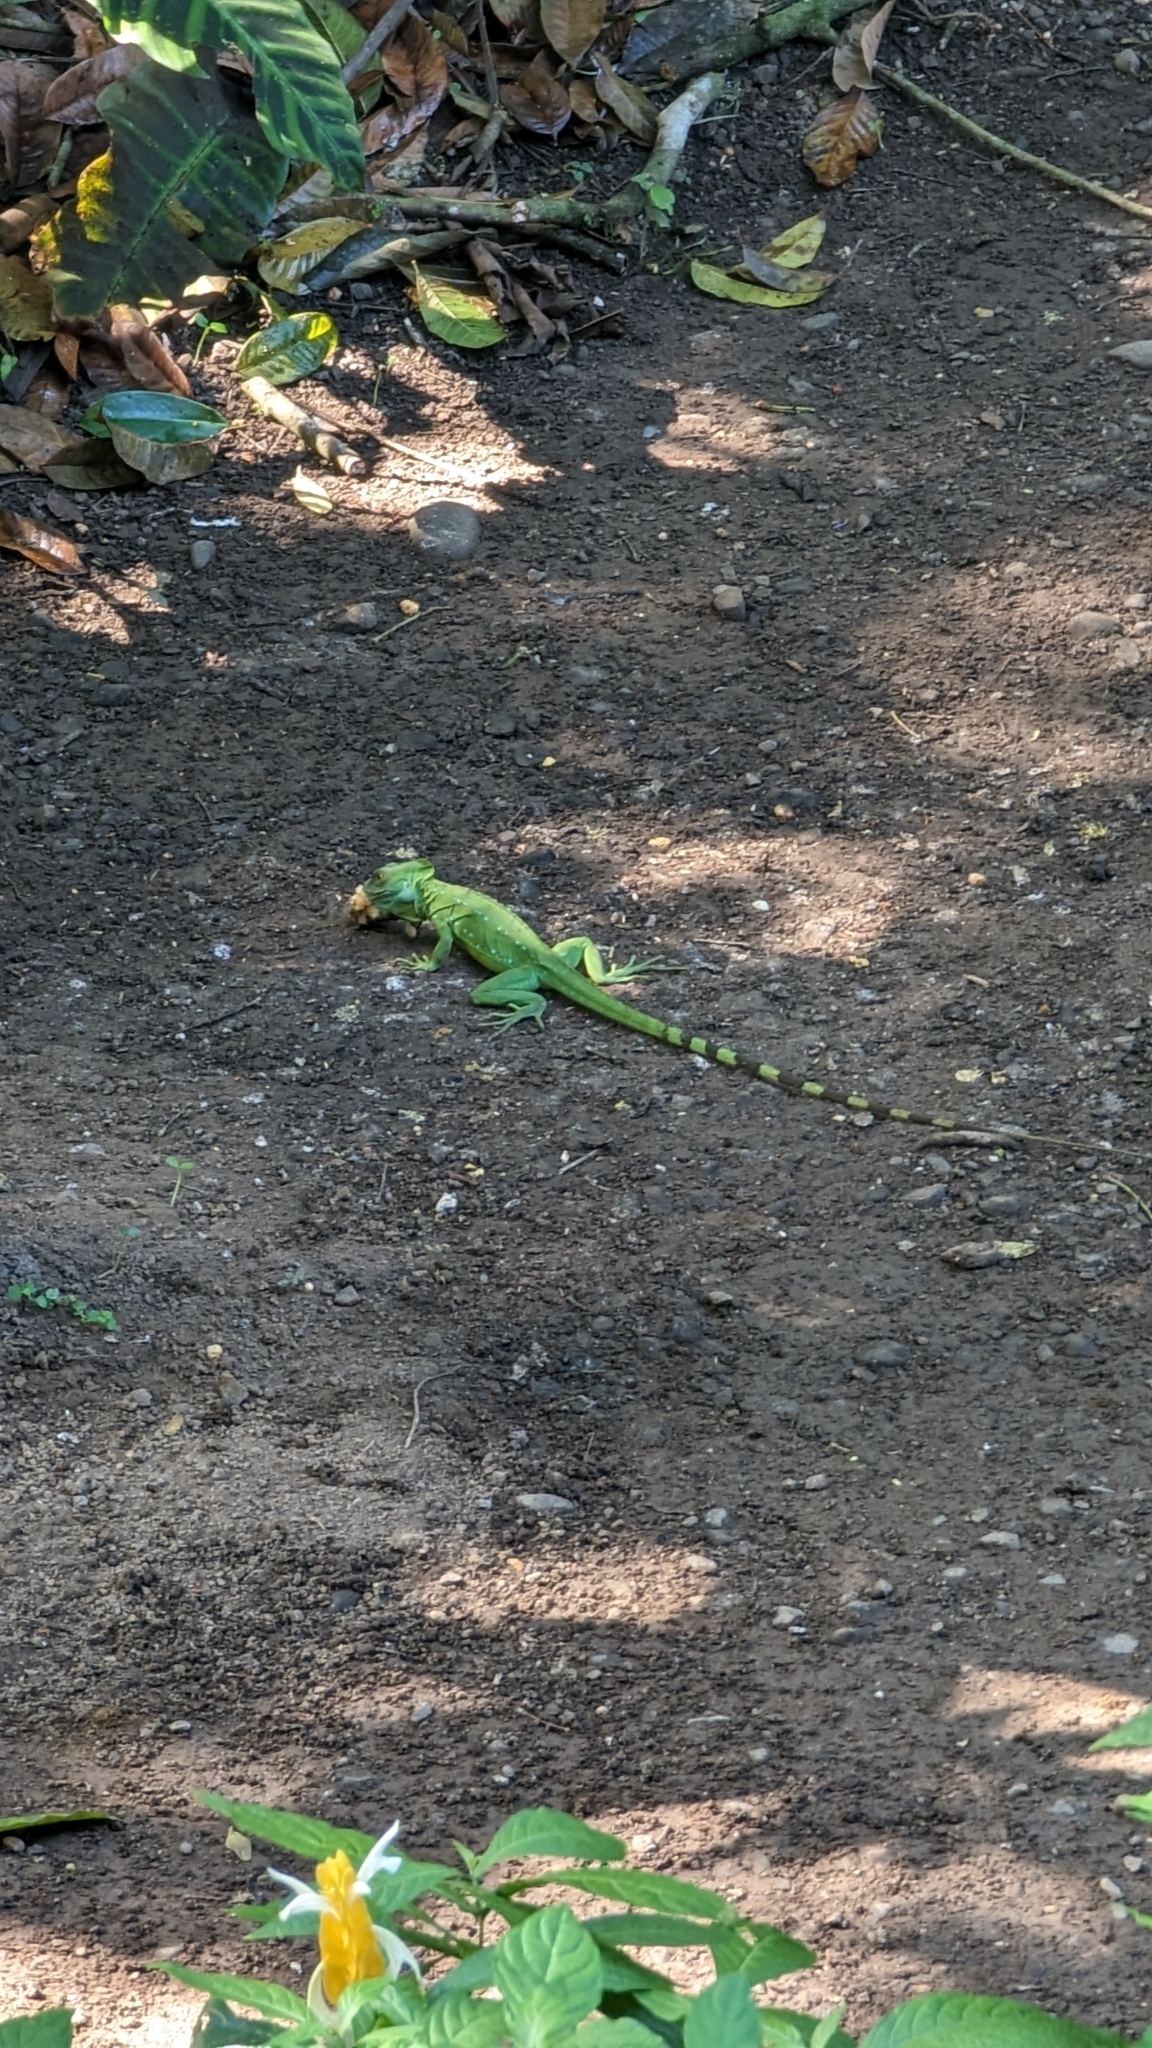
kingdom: Animalia
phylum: Chordata
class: Squamata
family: Corytophanidae
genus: Basiliscus
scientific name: Basiliscus plumifrons
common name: Green basilisk
